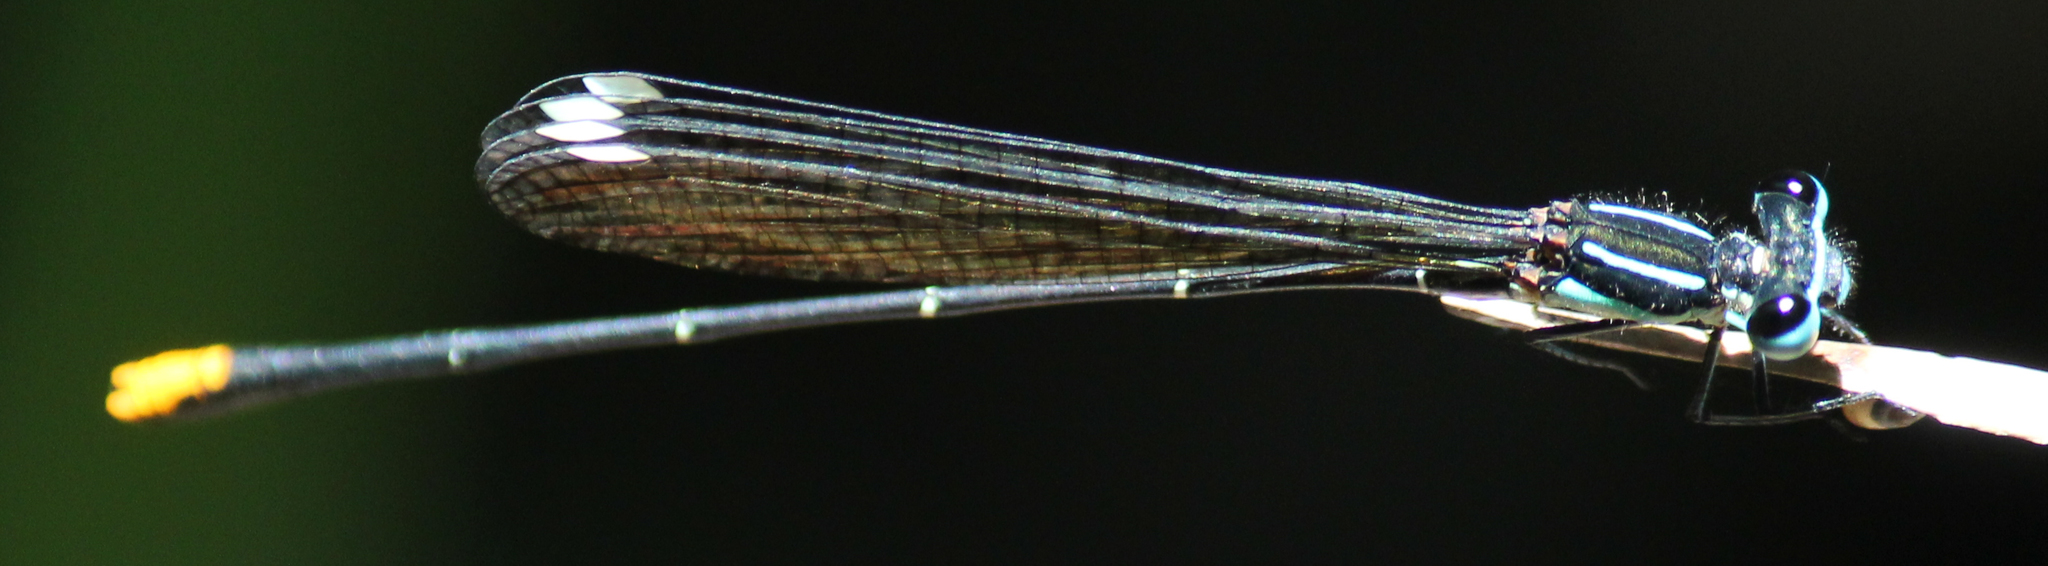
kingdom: Animalia
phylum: Arthropoda
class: Insecta
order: Odonata
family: Platycnemididae
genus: Allocnemis
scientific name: Allocnemis leucosticta
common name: Goldtail
